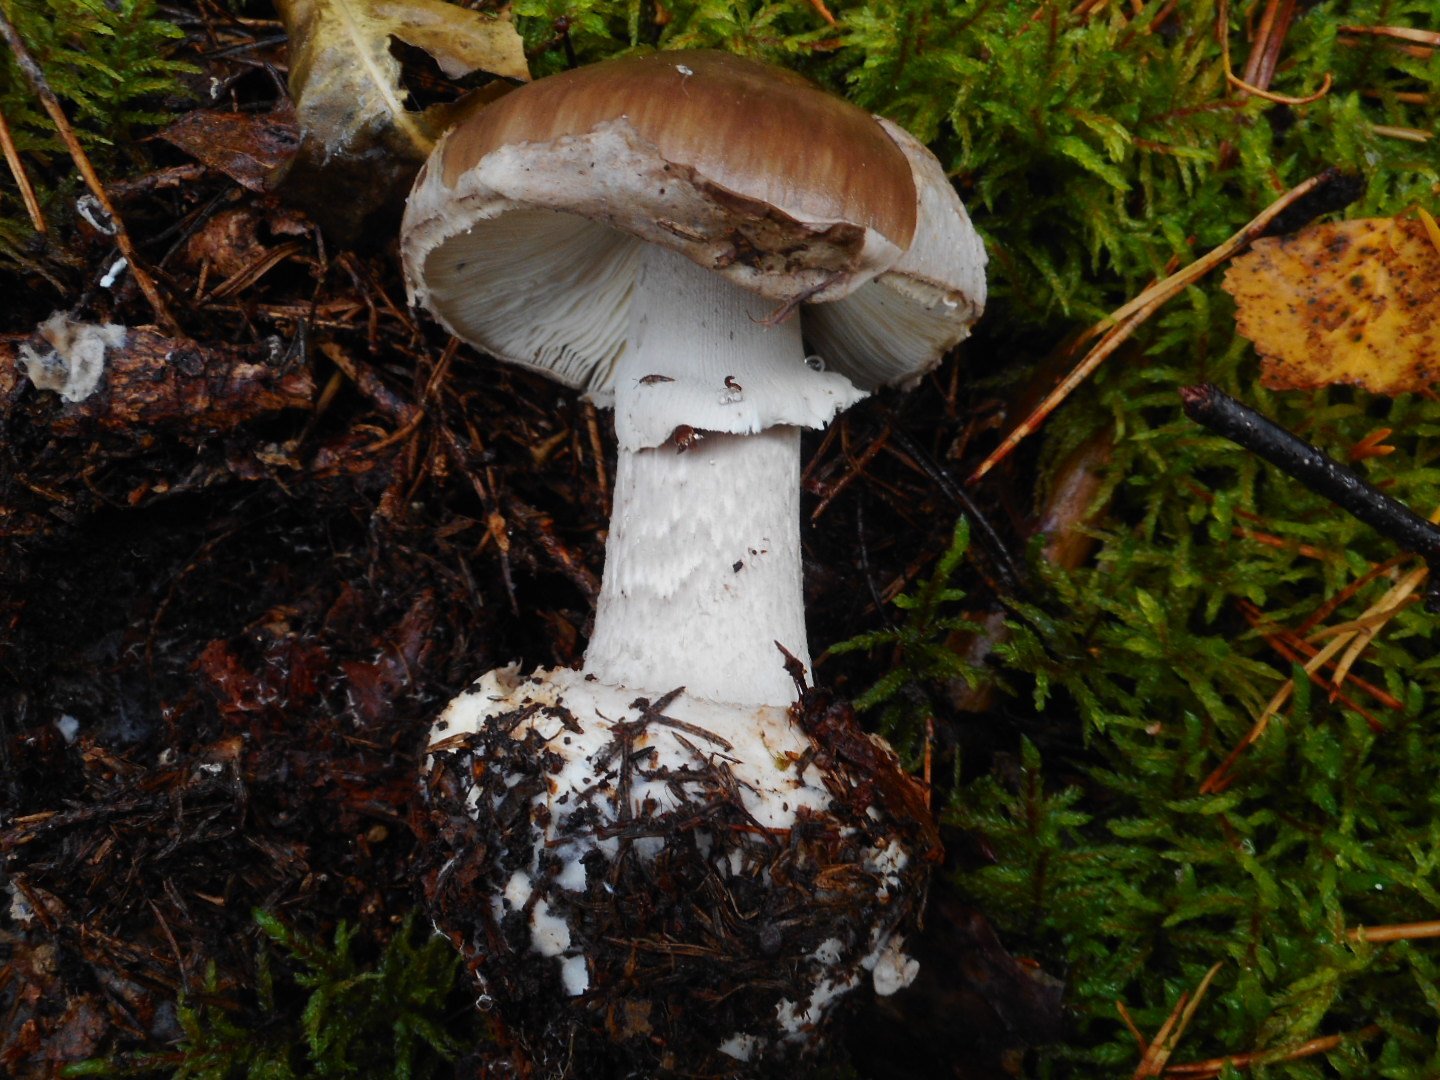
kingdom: Fungi
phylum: Basidiomycota
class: Agaricomycetes
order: Agaricales
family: Amanitaceae
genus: Amanita
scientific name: Amanita porphyria
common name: Grey veiled amanita
